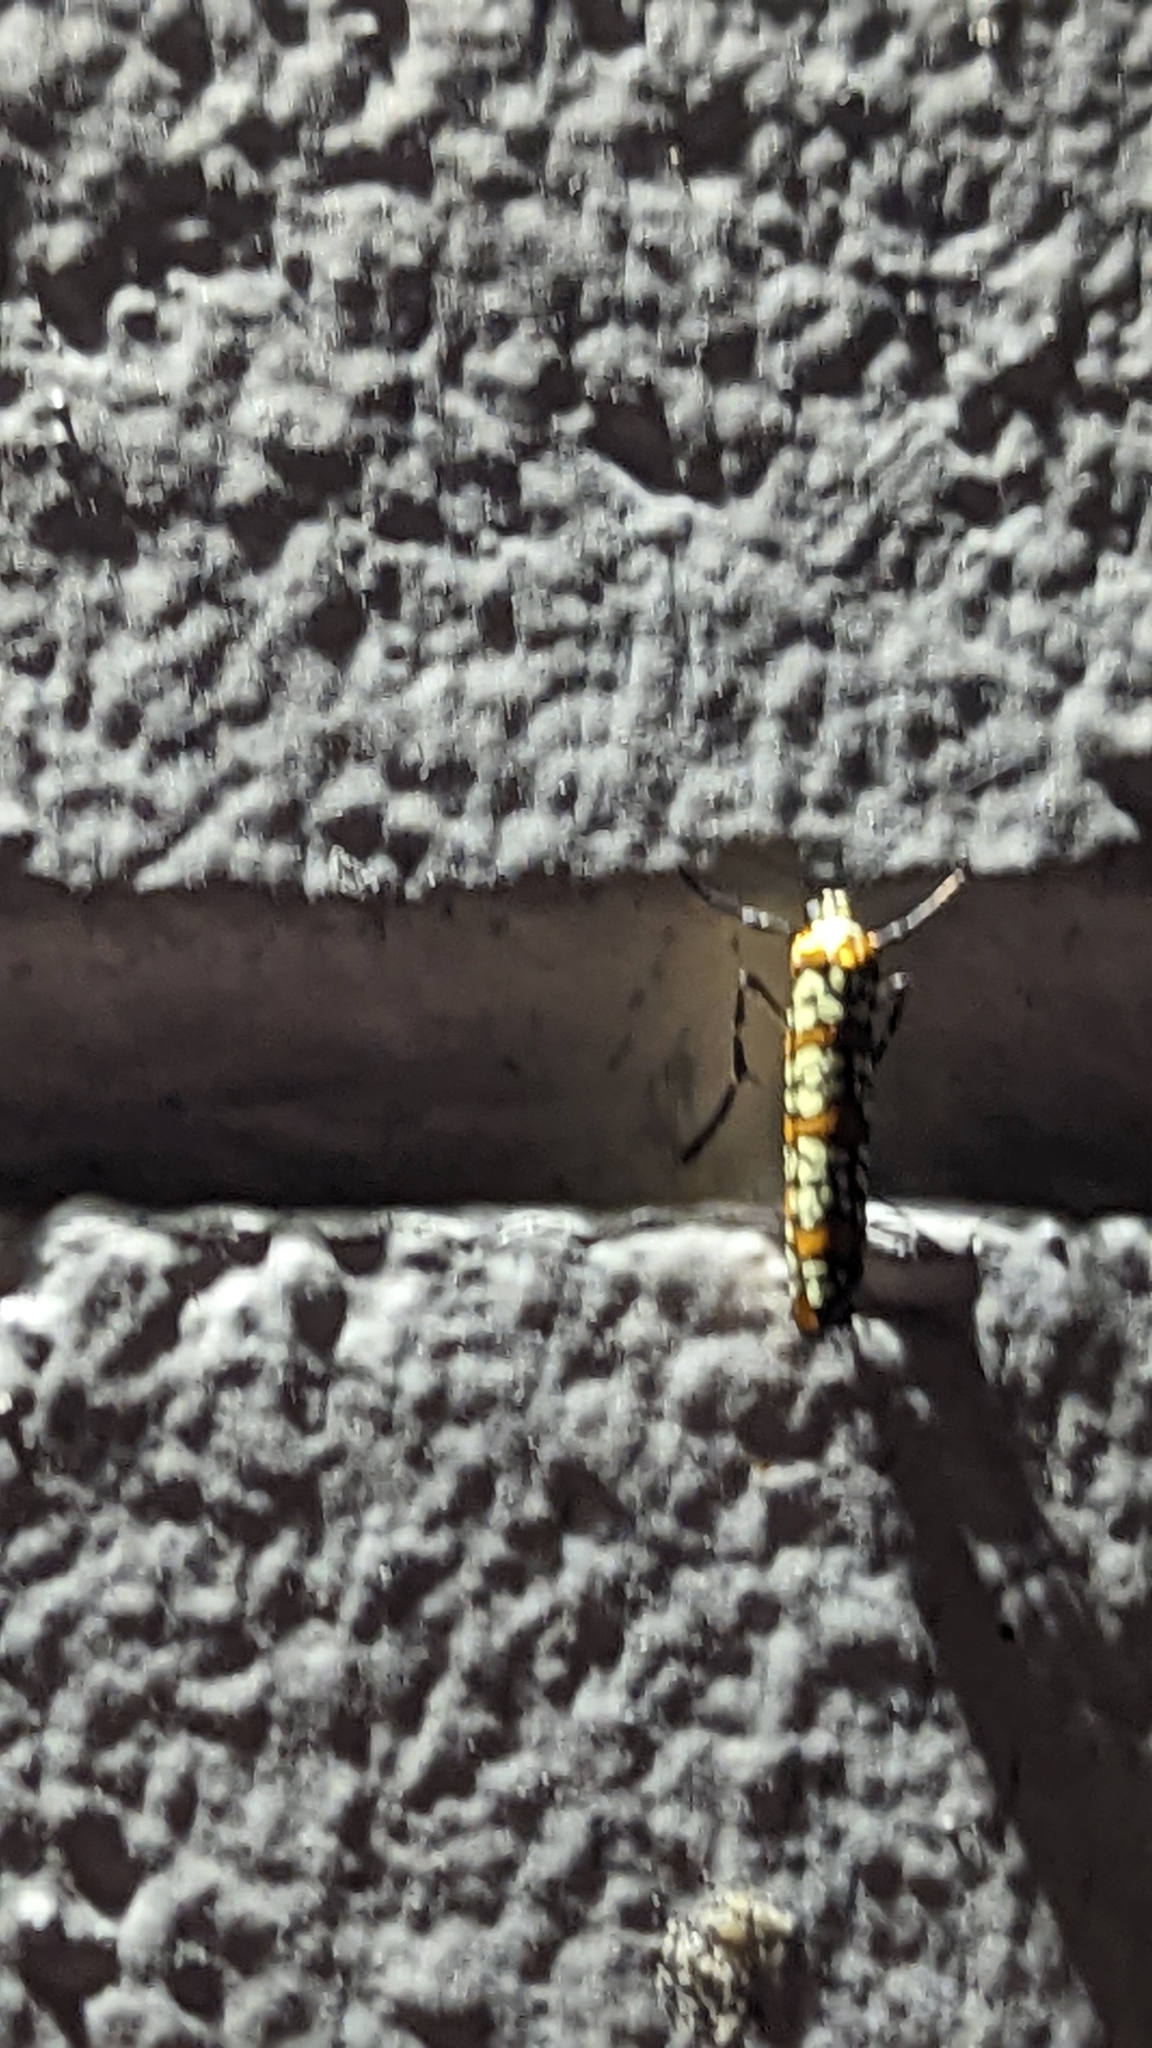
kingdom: Animalia
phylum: Arthropoda
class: Insecta
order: Lepidoptera
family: Attevidae
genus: Atteva
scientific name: Atteva punctella
